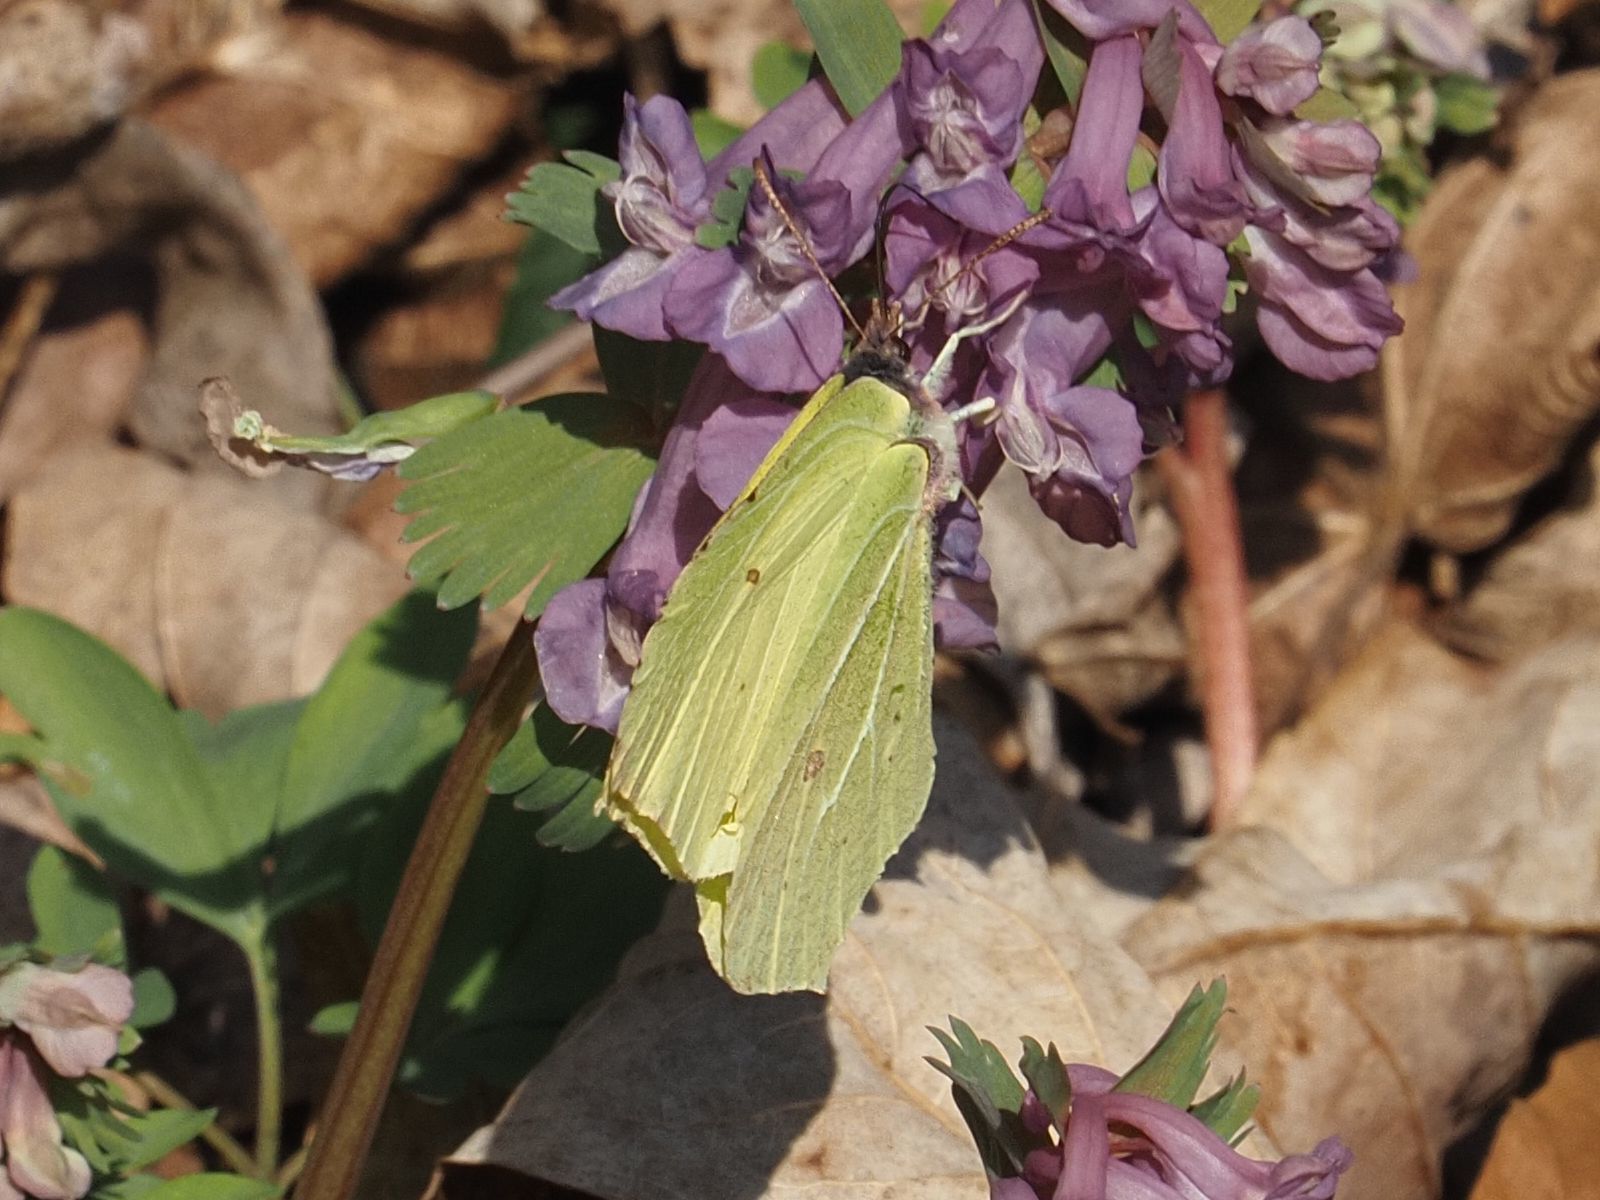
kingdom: Animalia
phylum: Arthropoda
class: Insecta
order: Lepidoptera
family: Pieridae
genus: Gonepteryx
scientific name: Gonepteryx rhamni
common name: Brimstone
